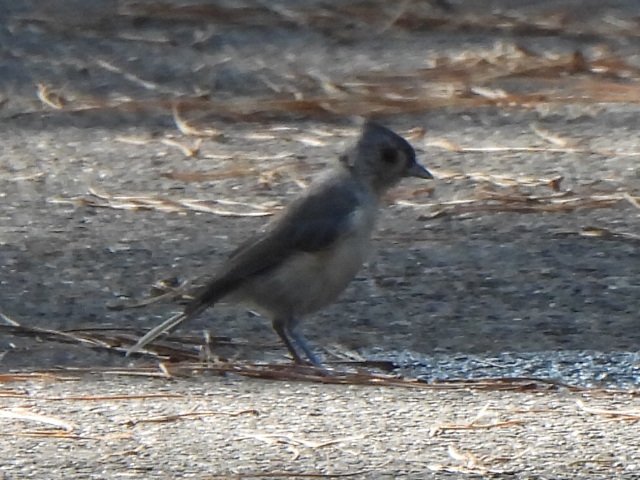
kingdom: Animalia
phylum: Chordata
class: Aves
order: Passeriformes
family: Paridae
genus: Baeolophus
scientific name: Baeolophus bicolor
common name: Tufted titmouse
